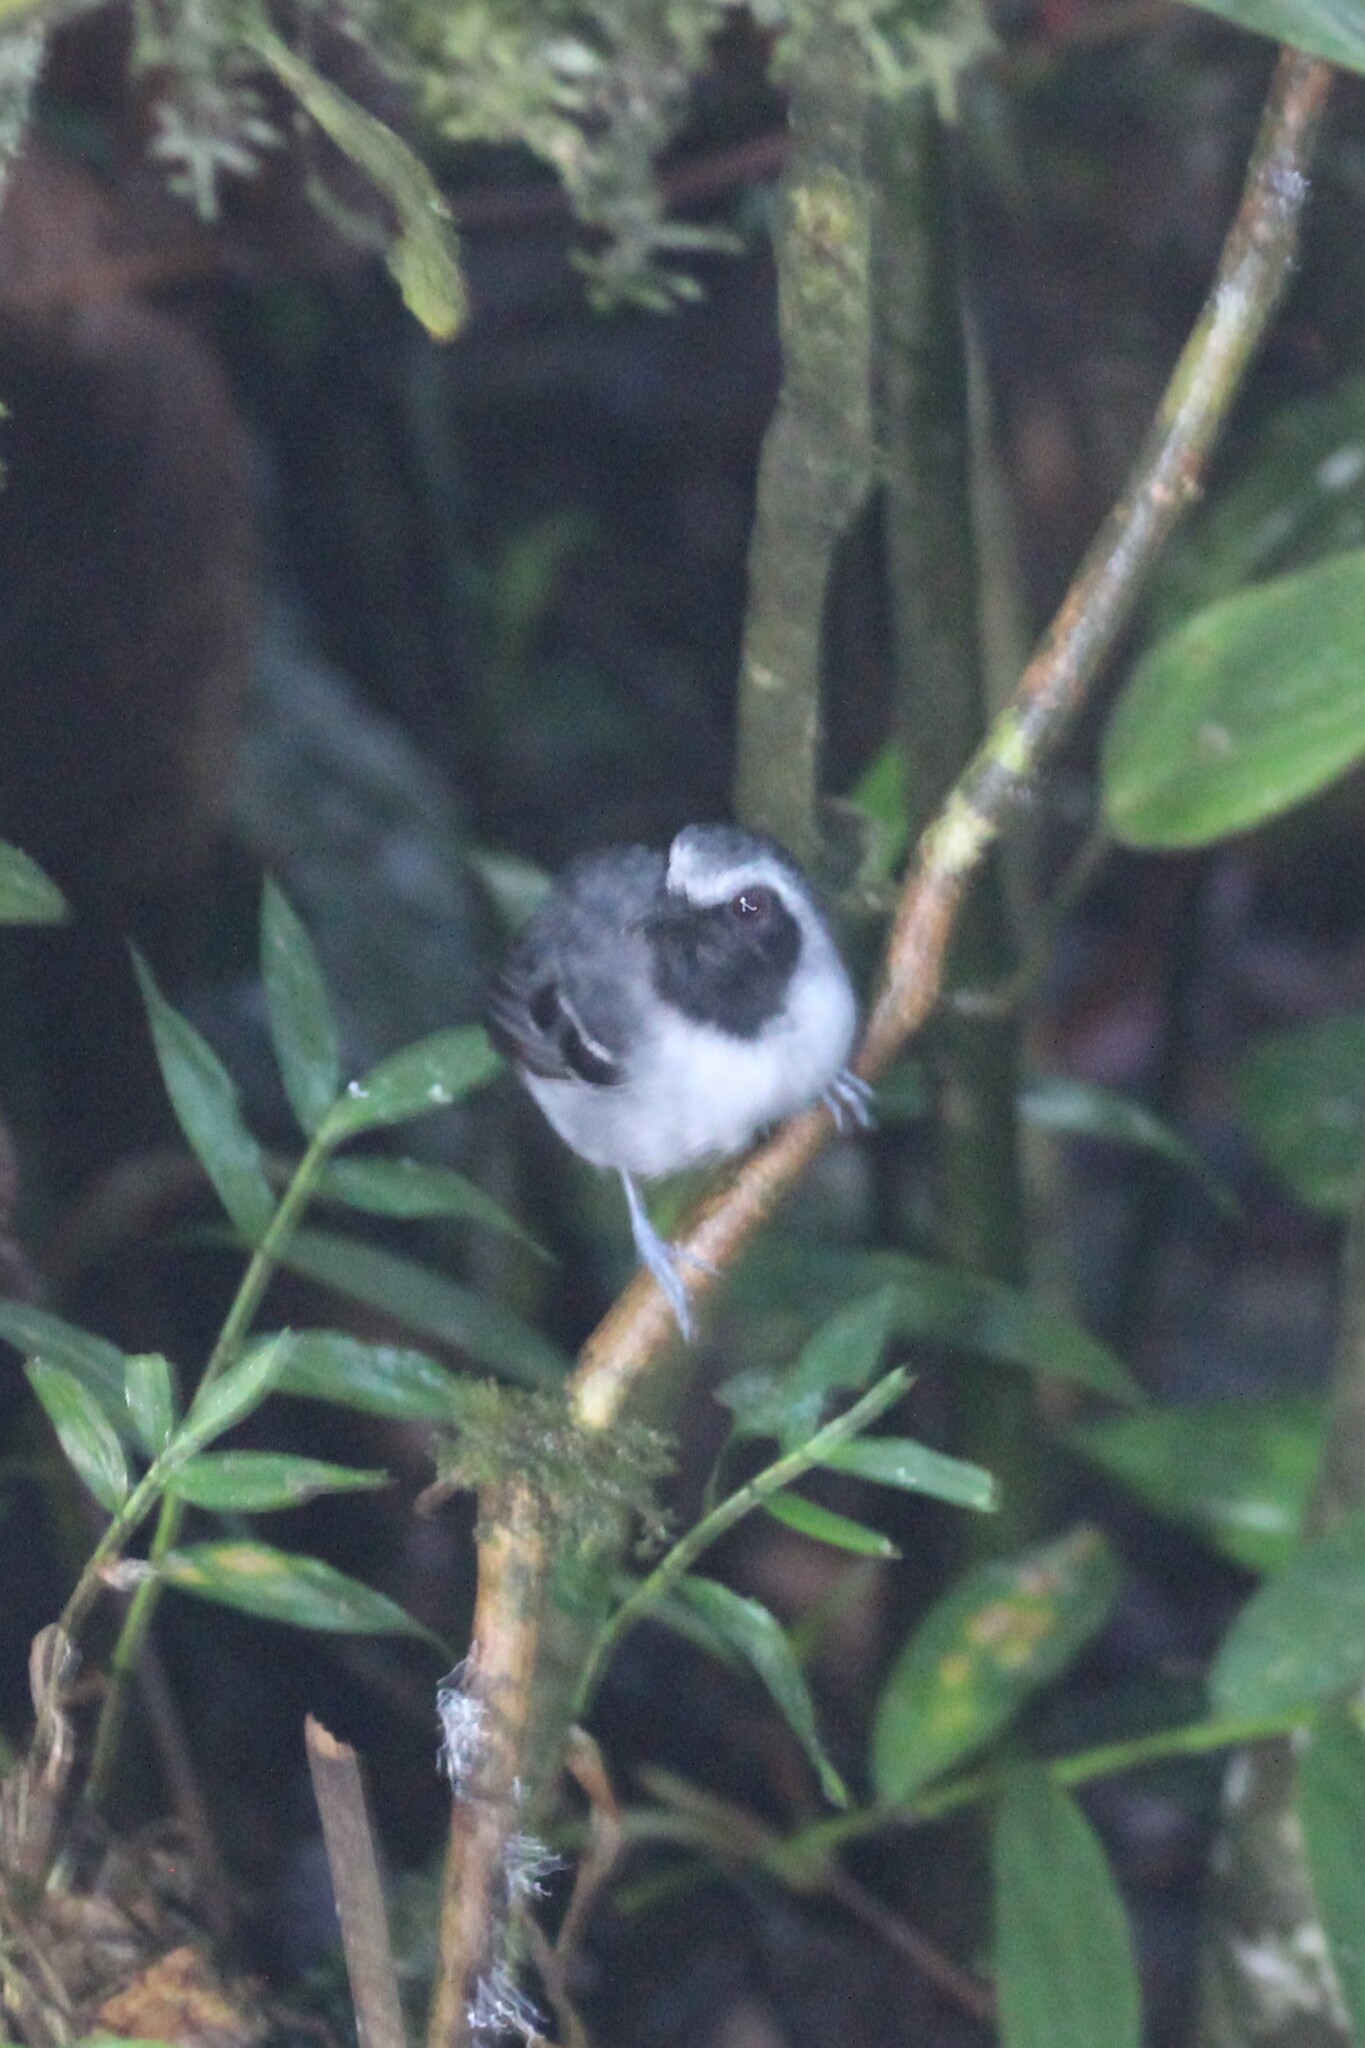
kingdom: Animalia
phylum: Chordata
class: Aves
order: Passeriformes
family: Thamnophilidae
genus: Myrmoborus
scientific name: Myrmoborus myotherinus
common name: Black-faced antbird
